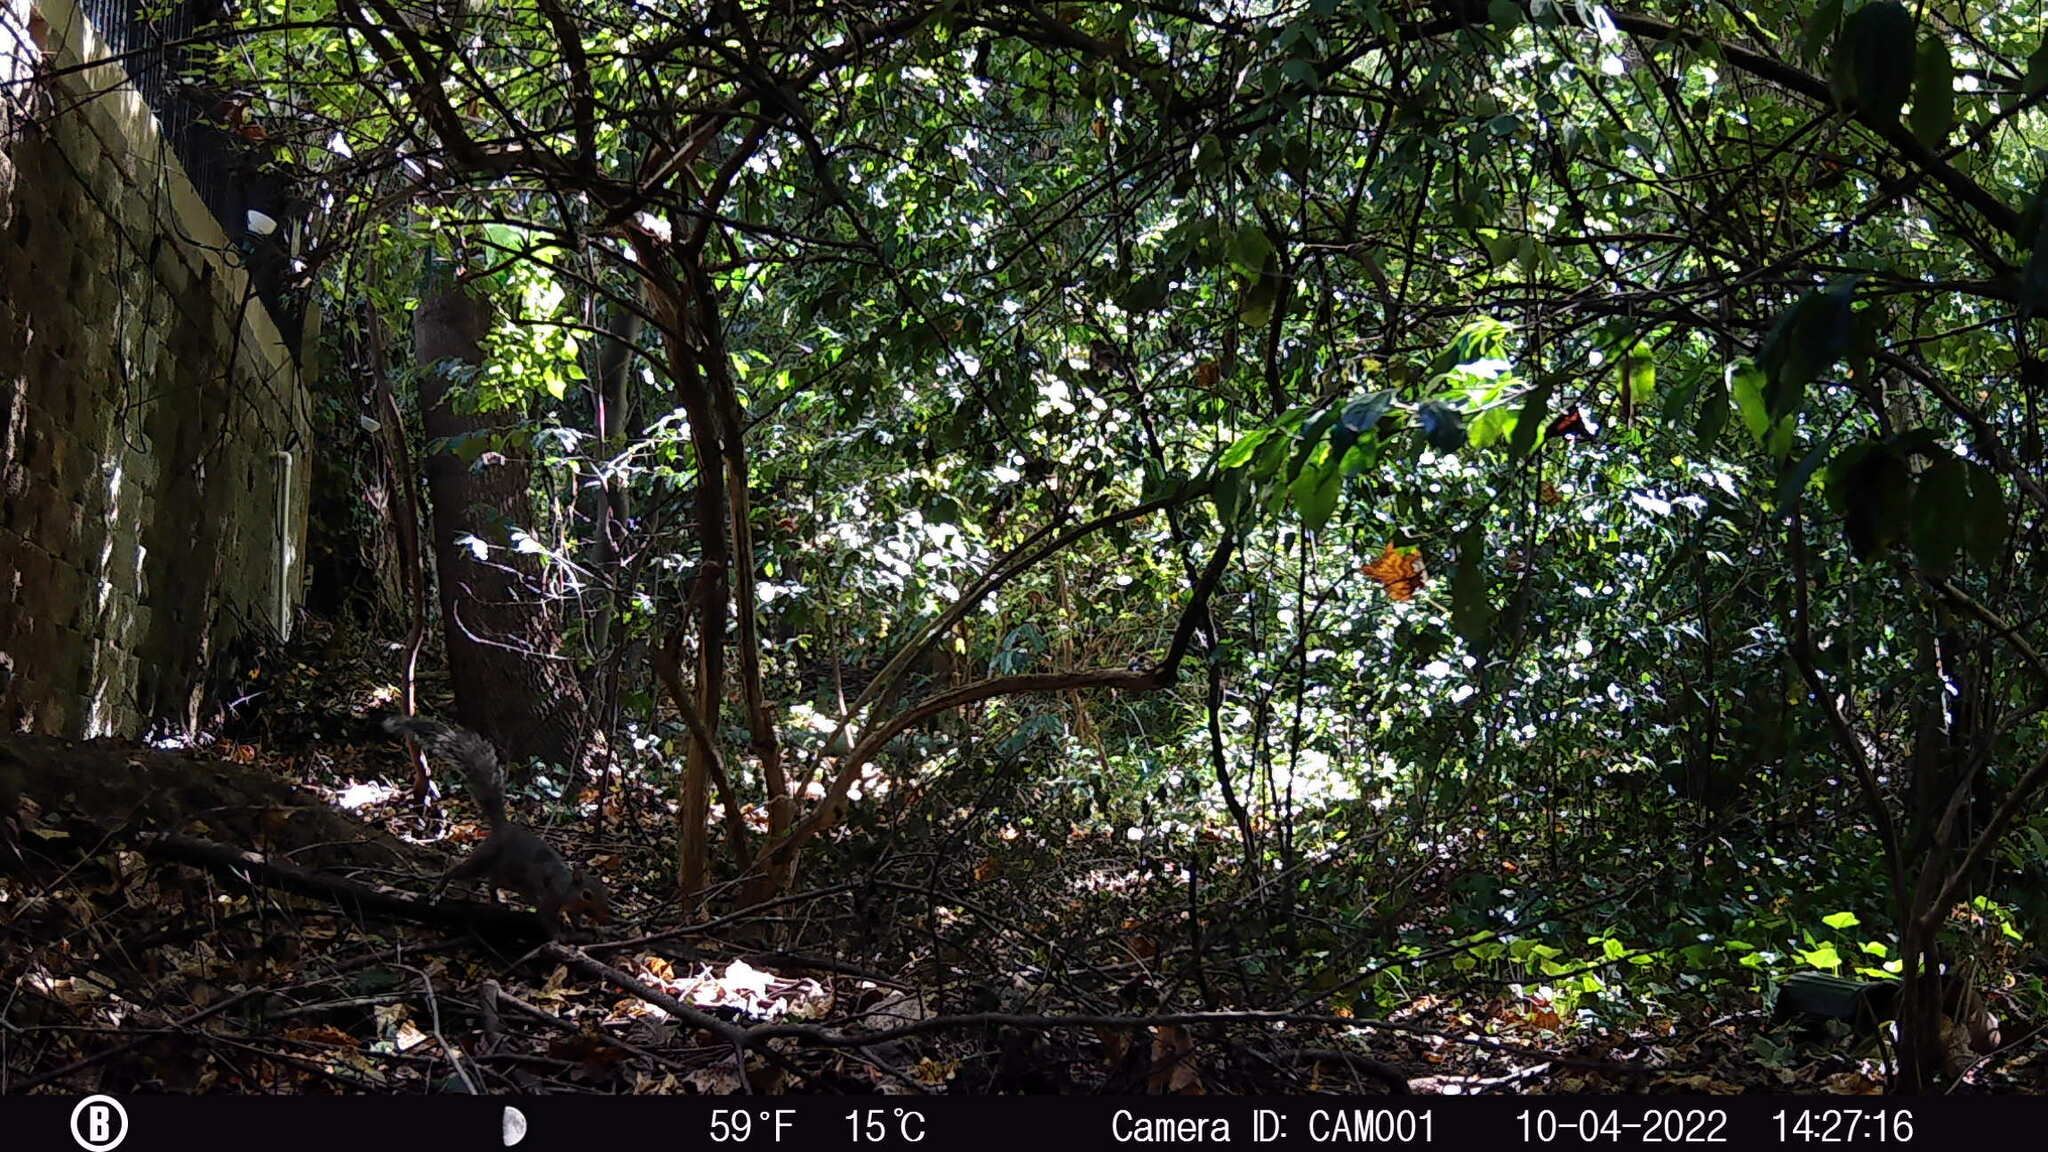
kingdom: Animalia
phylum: Chordata
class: Mammalia
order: Rodentia
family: Sciuridae
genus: Sciurus
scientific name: Sciurus carolinensis
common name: Eastern gray squirrel
